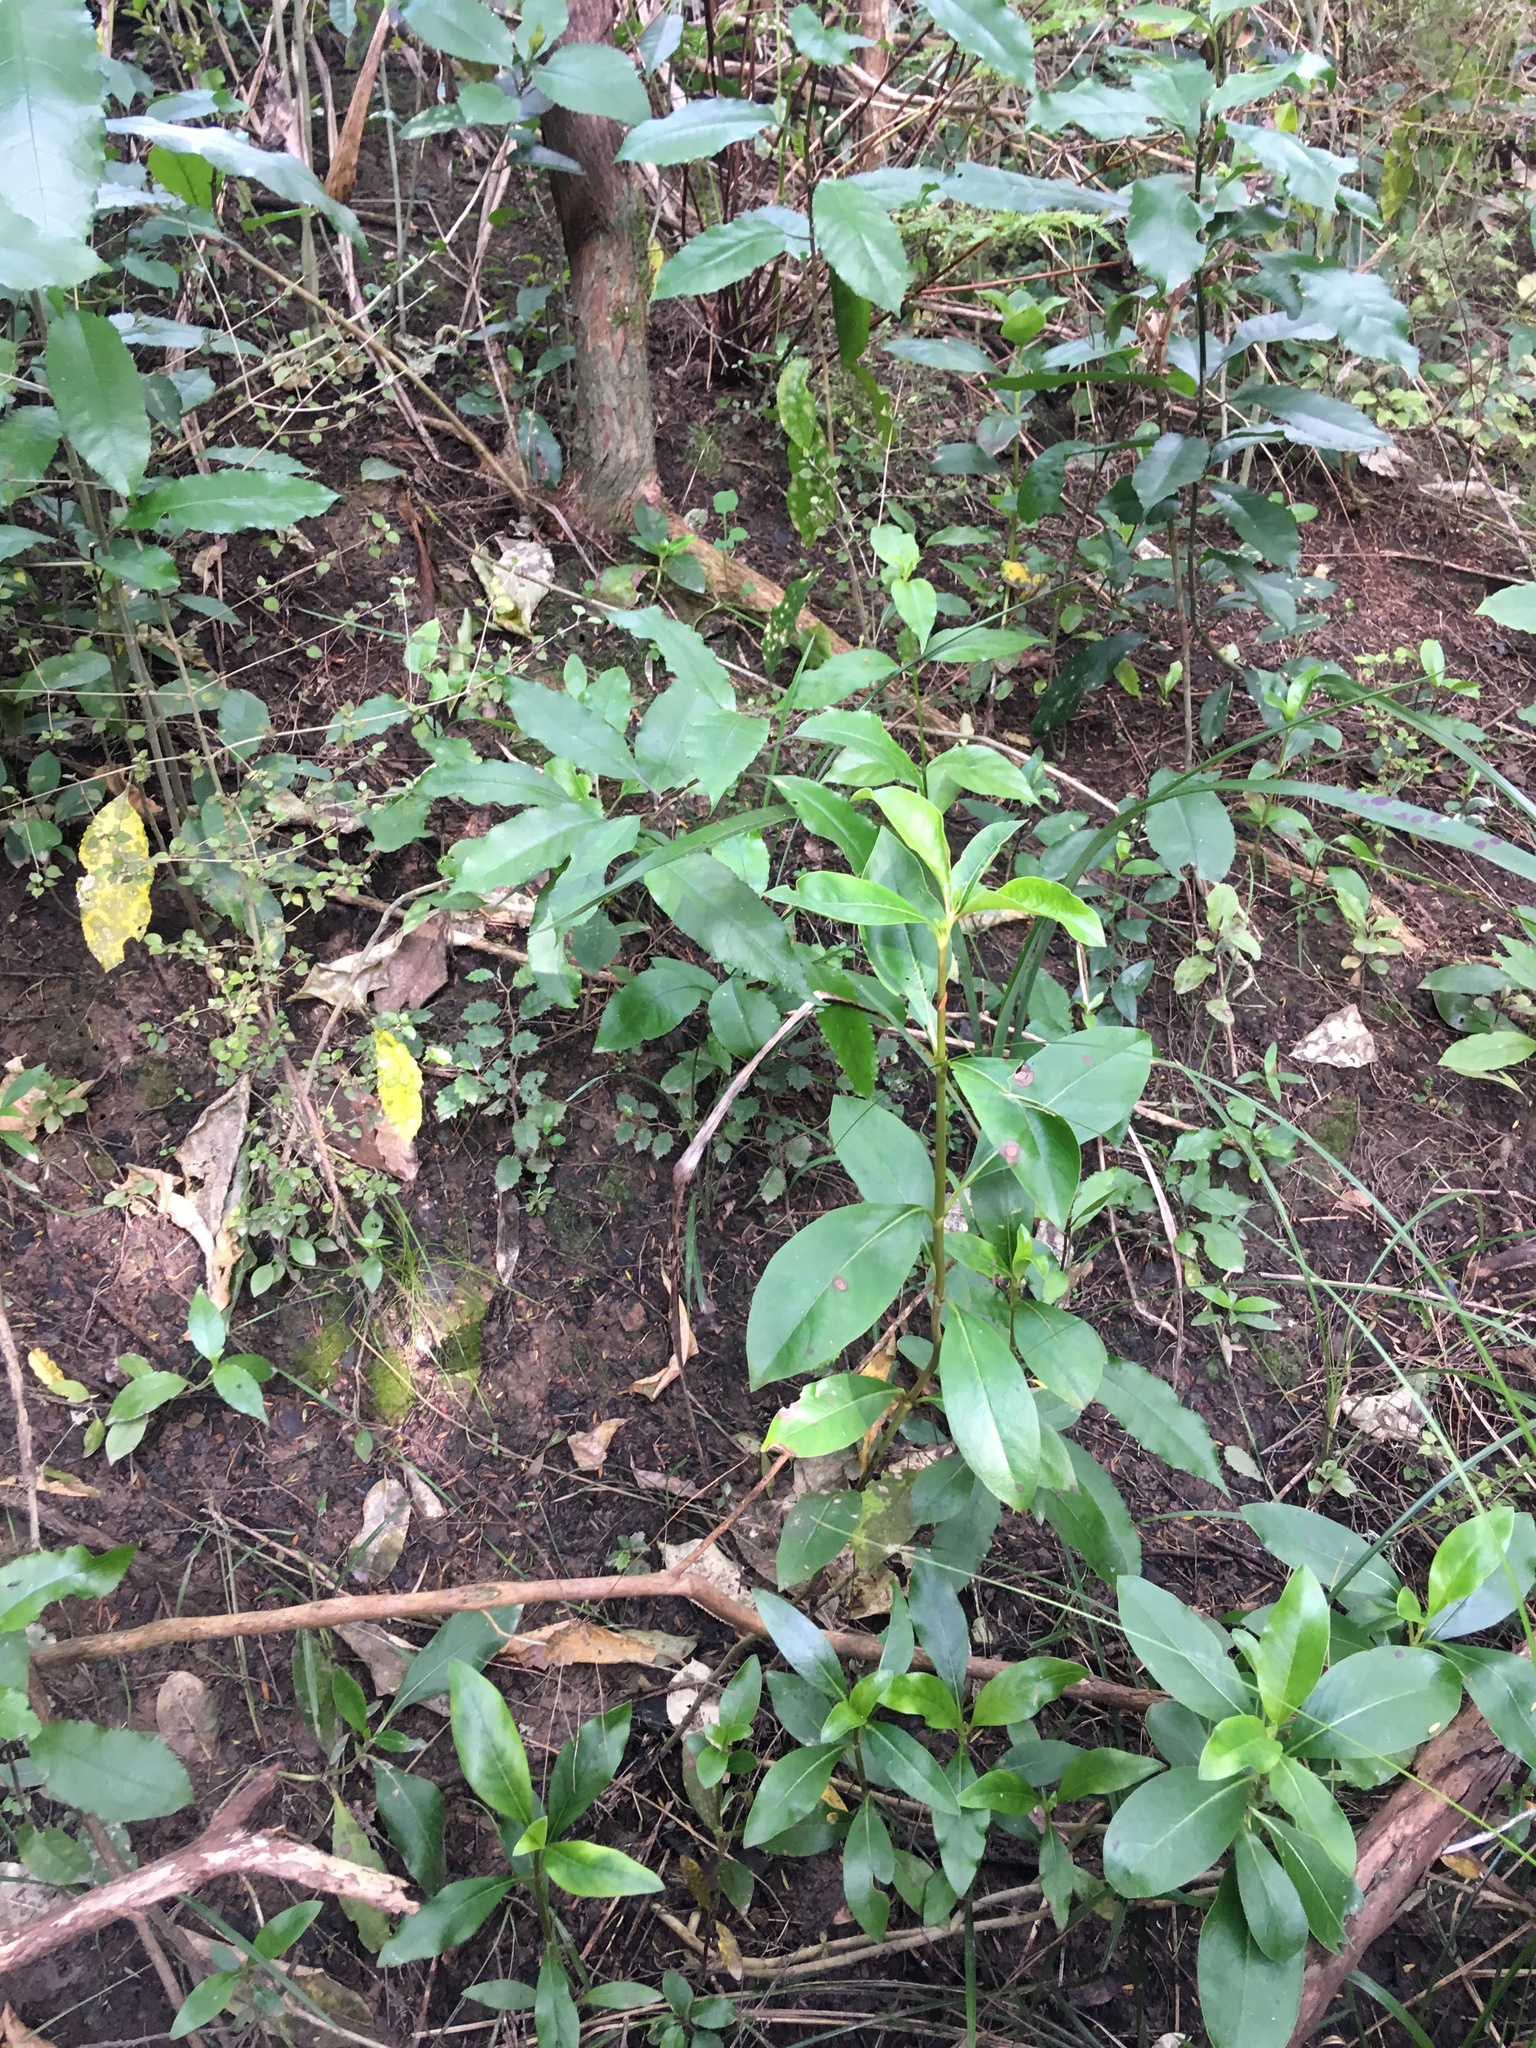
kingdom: Plantae
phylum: Tracheophyta
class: Magnoliopsida
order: Gentianales
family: Rubiaceae
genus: Coprosma
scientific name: Coprosma robusta
